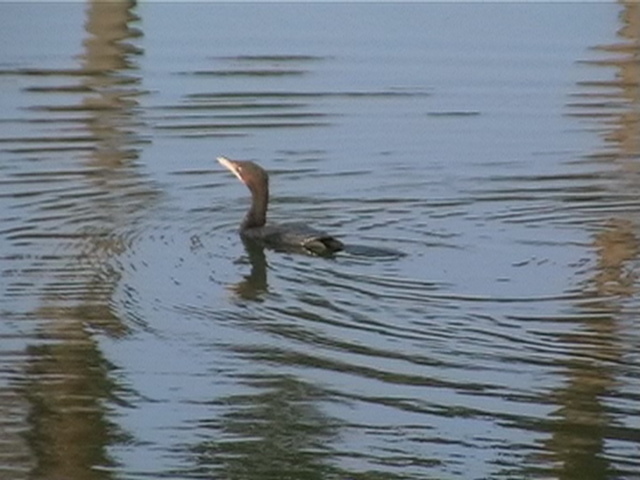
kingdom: Animalia
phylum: Chordata
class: Aves
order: Suliformes
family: Phalacrocoracidae
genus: Microcarbo
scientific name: Microcarbo niger
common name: Little cormorant
